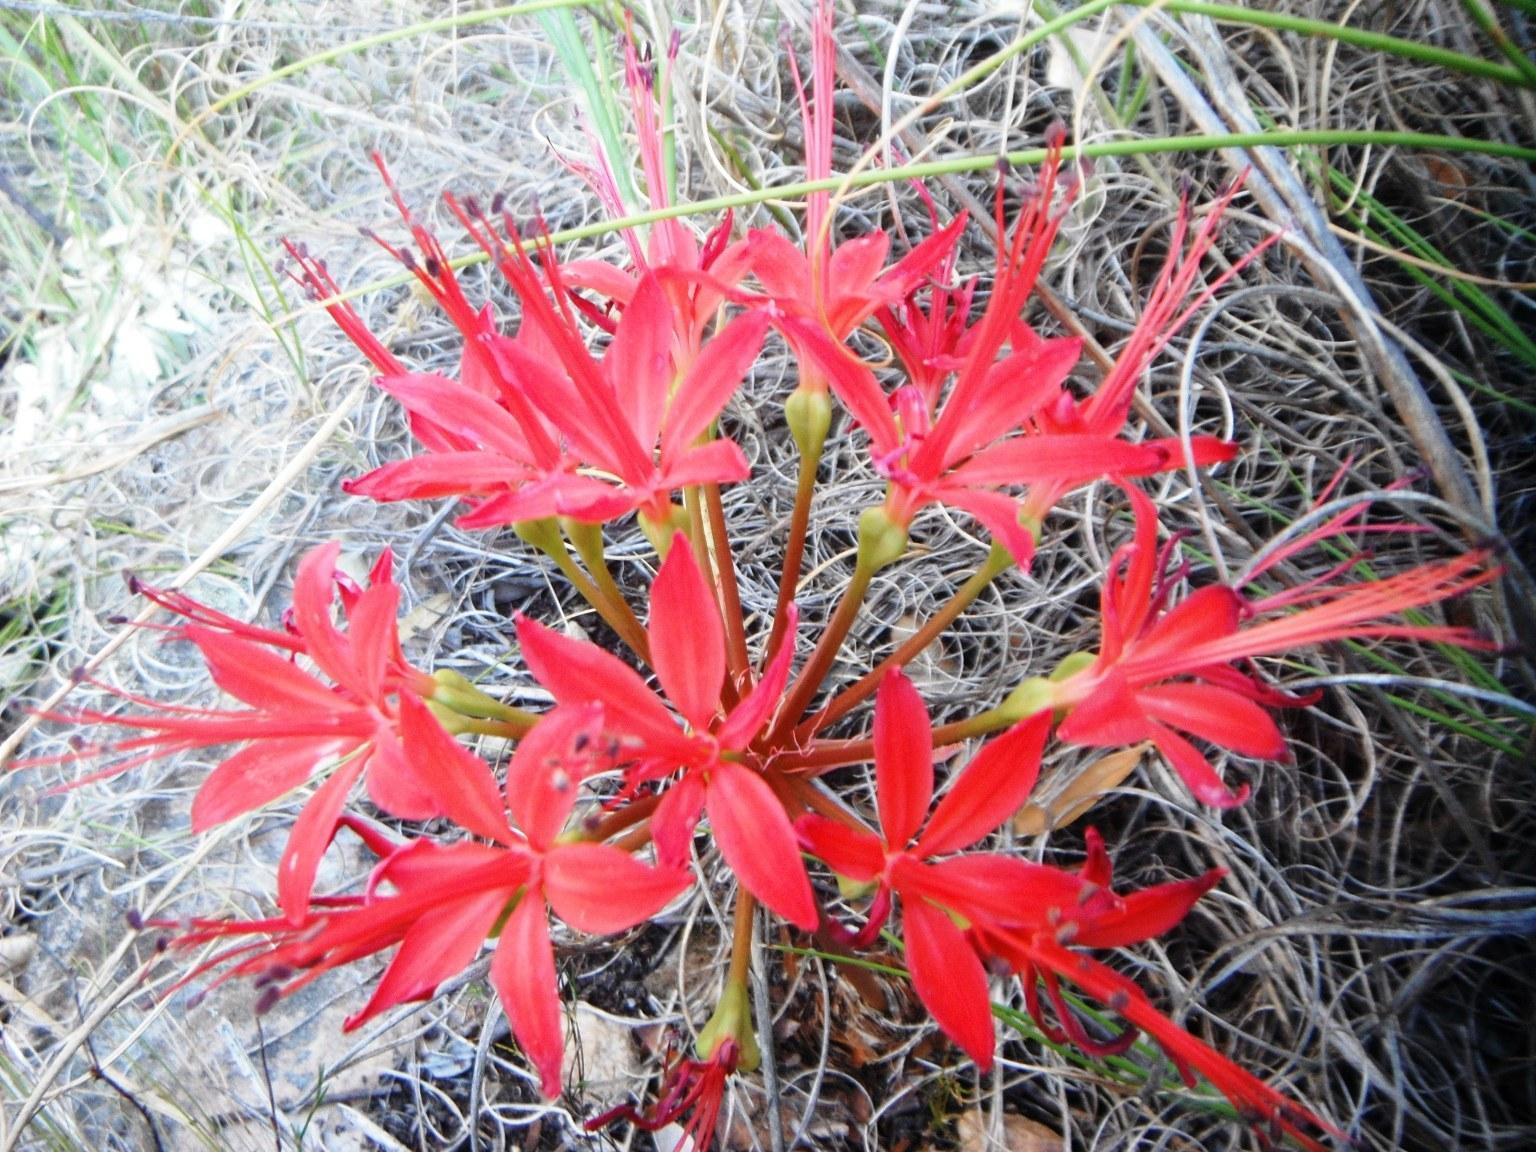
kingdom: Plantae
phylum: Tracheophyta
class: Liliopsida
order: Asparagales
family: Amaryllidaceae
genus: Brunsvigia
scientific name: Brunsvigia marginata
